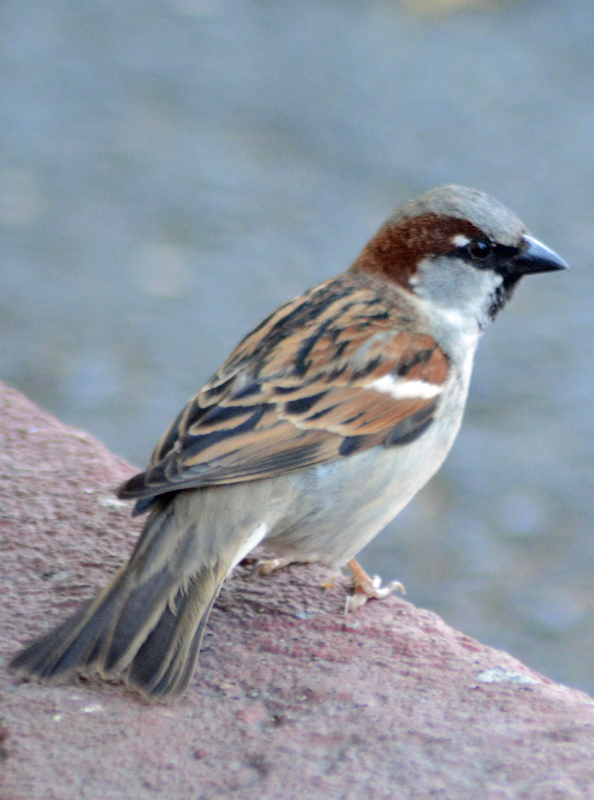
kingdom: Animalia
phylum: Chordata
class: Aves
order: Passeriformes
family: Passeridae
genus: Passer
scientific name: Passer domesticus
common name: House sparrow
